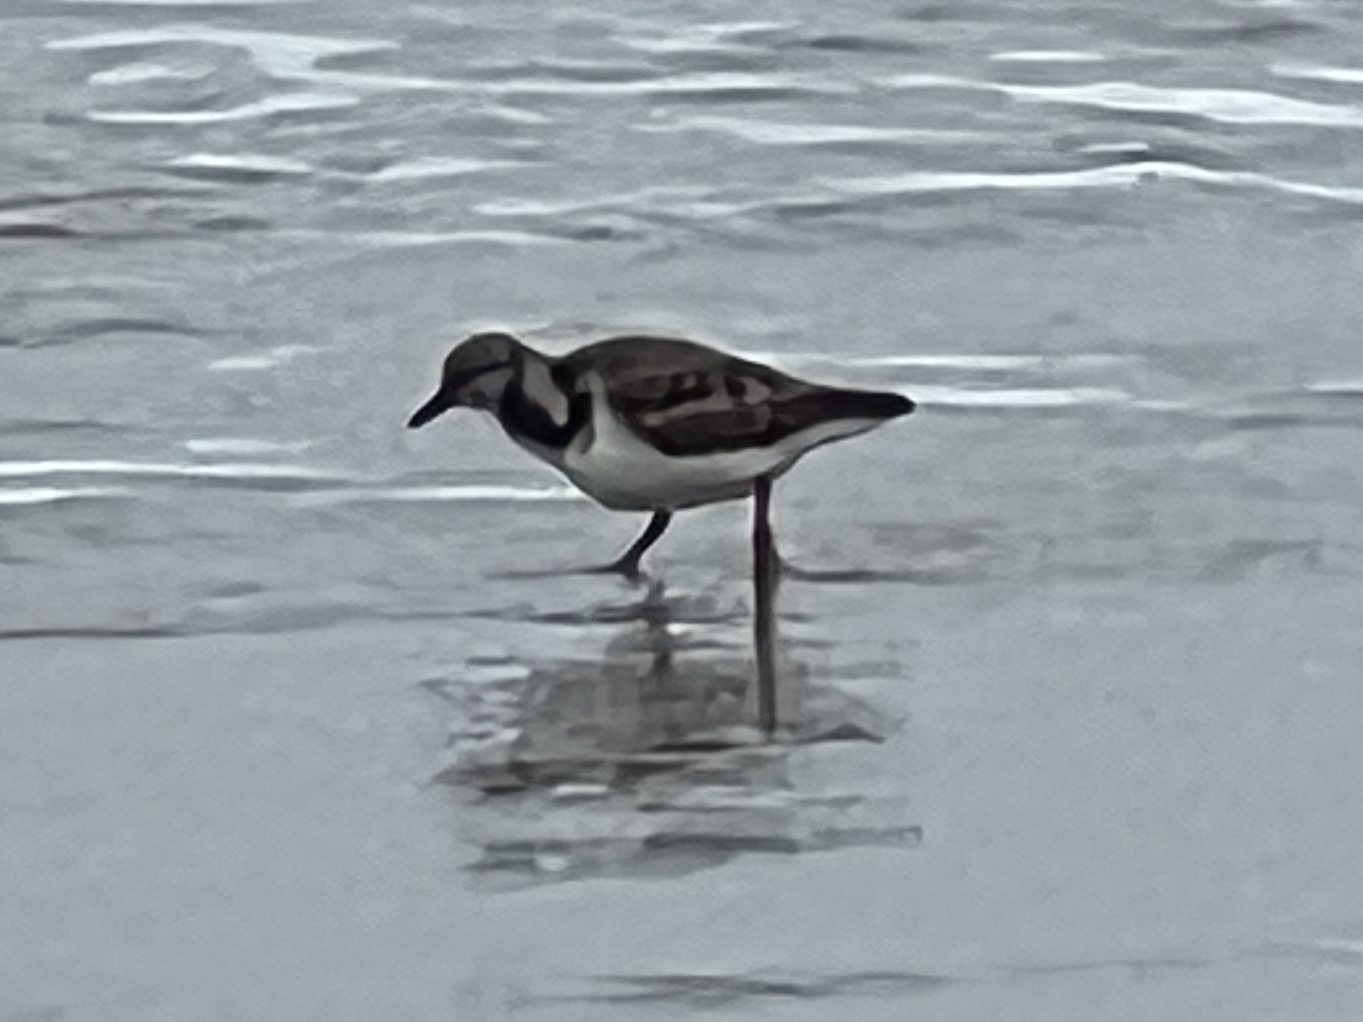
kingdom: Animalia
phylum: Chordata
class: Aves
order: Charadriiformes
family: Scolopacidae
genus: Arenaria
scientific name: Arenaria interpres
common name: Ruddy turnstone
